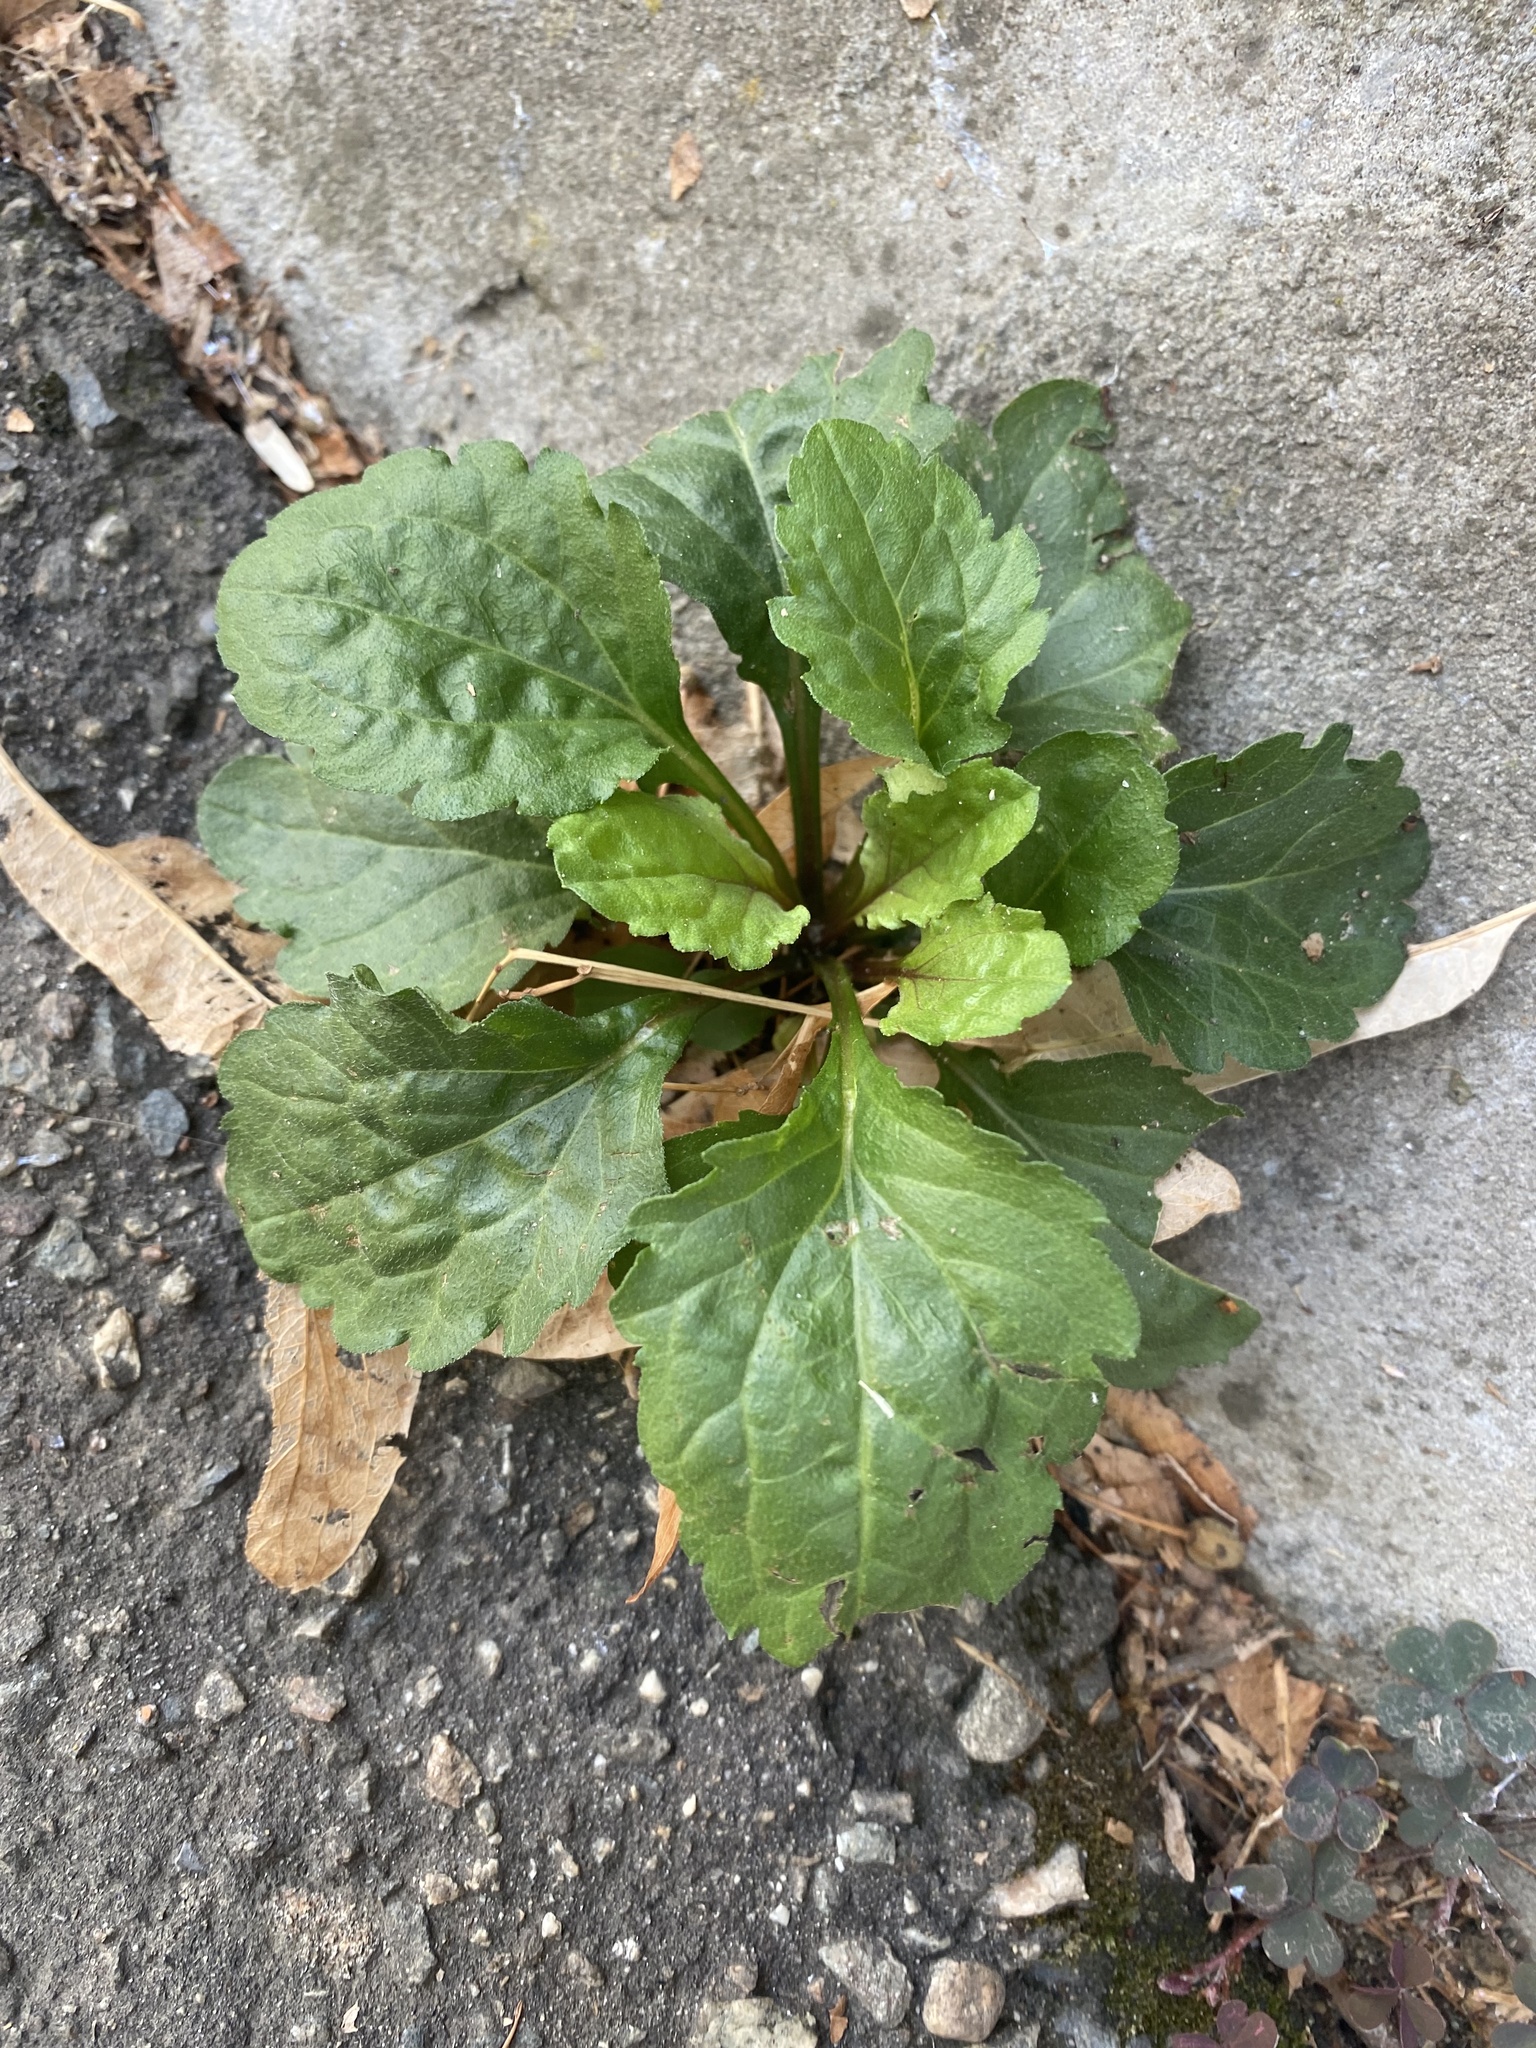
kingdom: Plantae
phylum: Tracheophyta
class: Magnoliopsida
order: Asterales
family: Asteraceae
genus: Erigeron
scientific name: Erigeron annuus
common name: Tall fleabane
